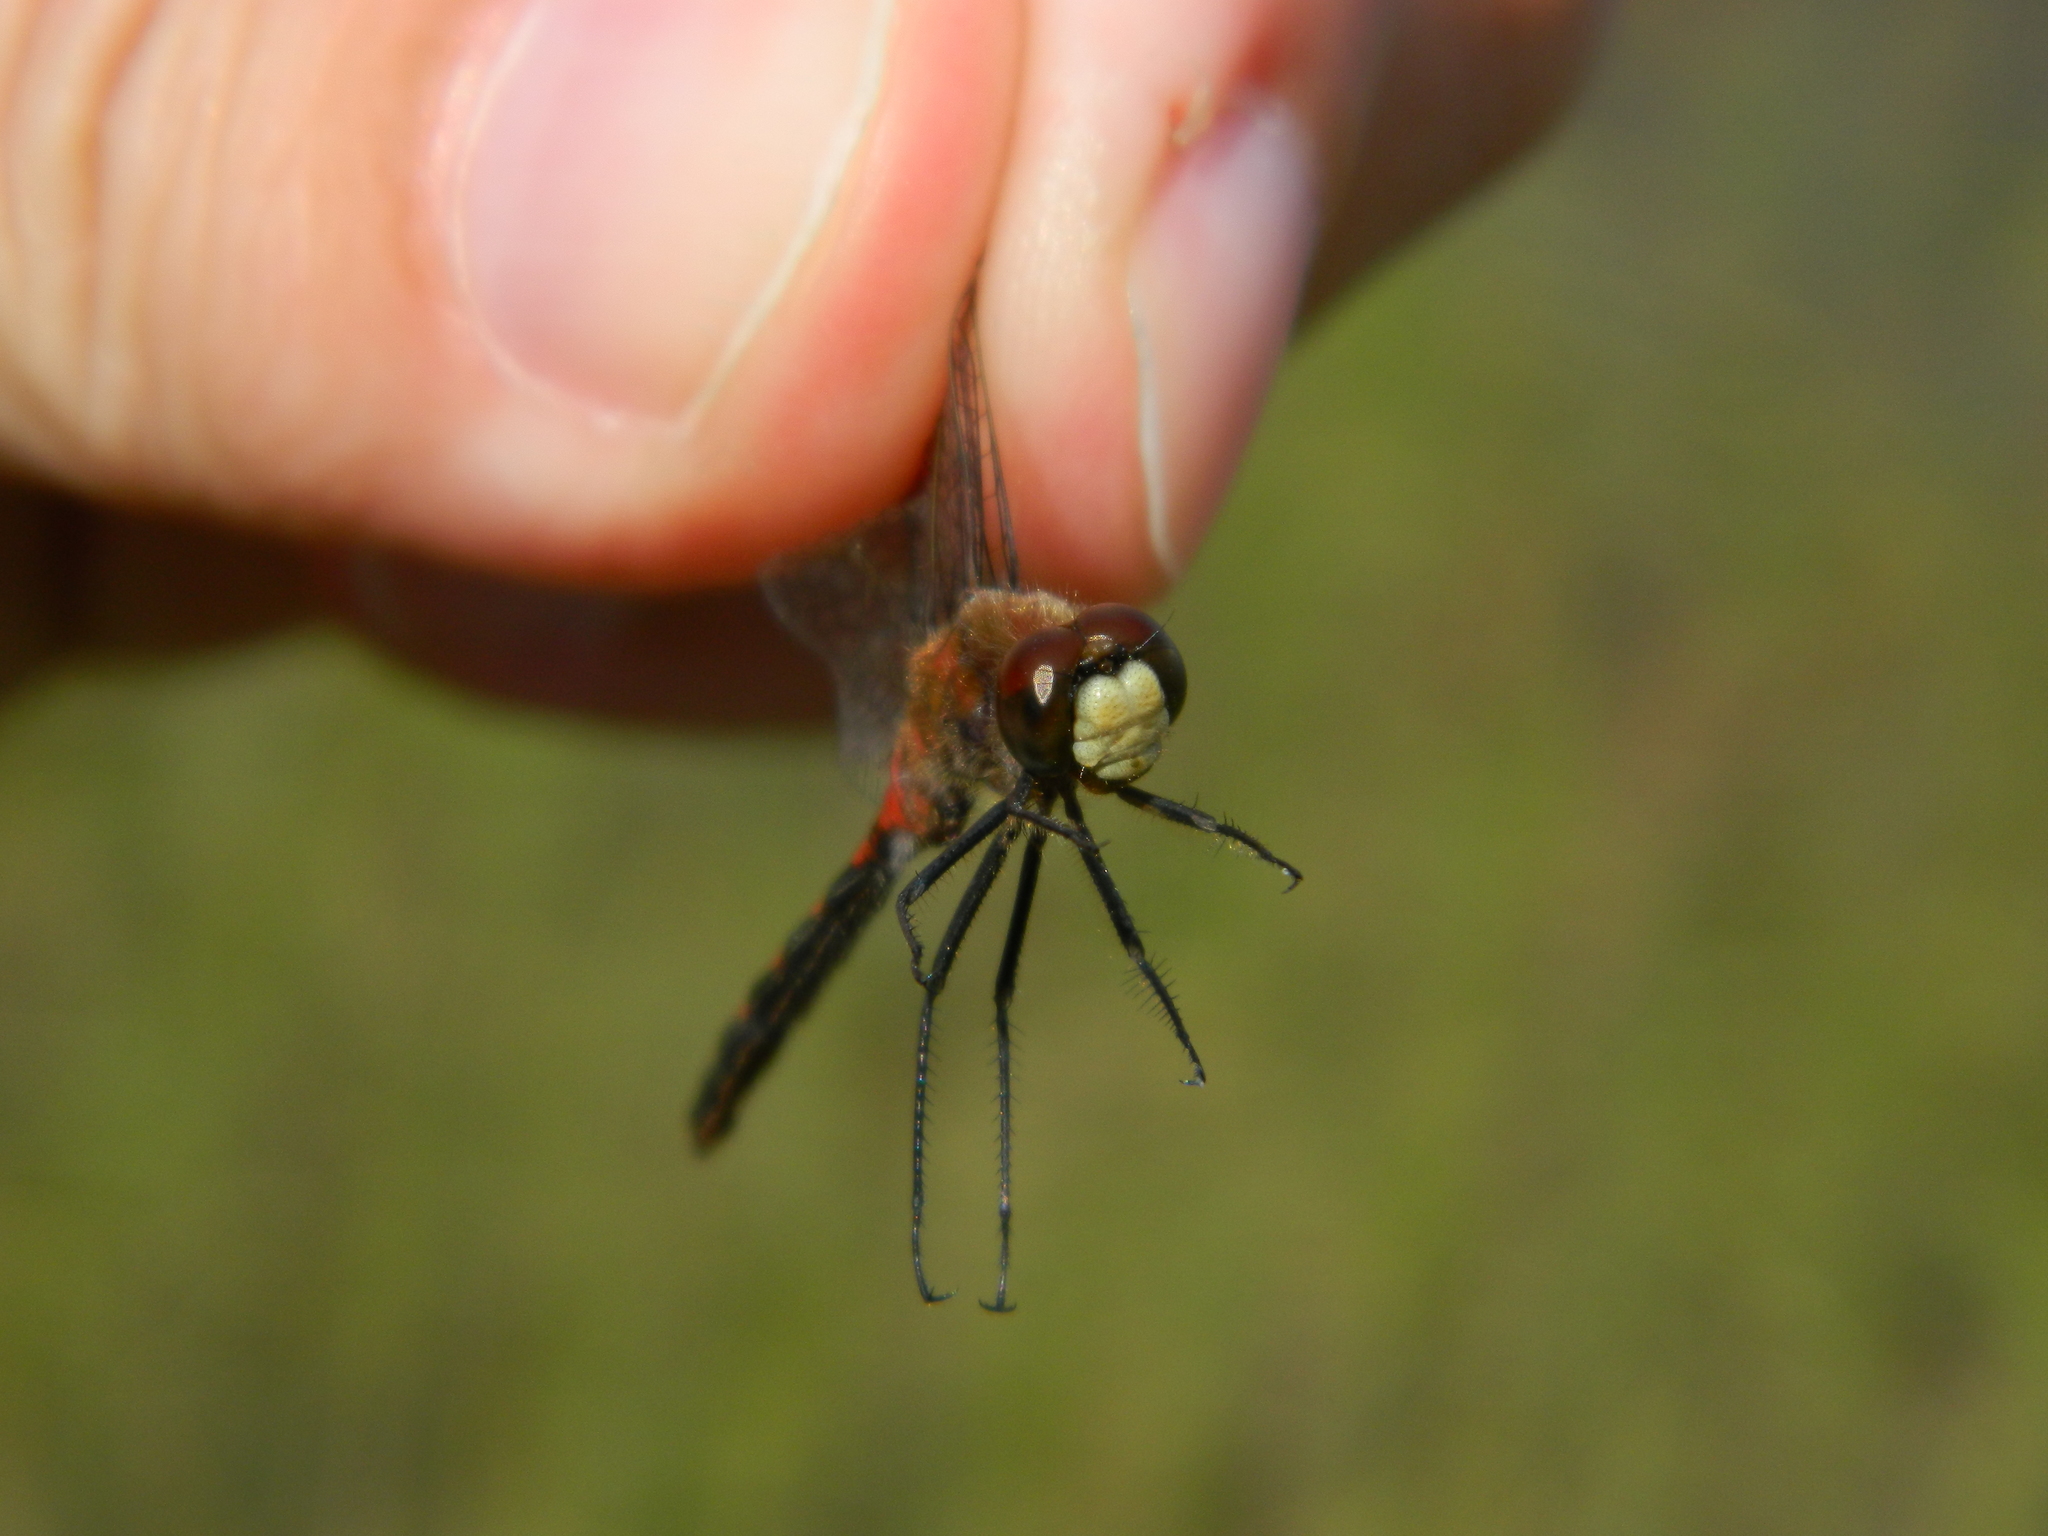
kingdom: Animalia
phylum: Arthropoda
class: Insecta
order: Odonata
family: Libellulidae
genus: Sympetrum
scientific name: Sympetrum obtrusum
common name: White-faced meadowhawk
